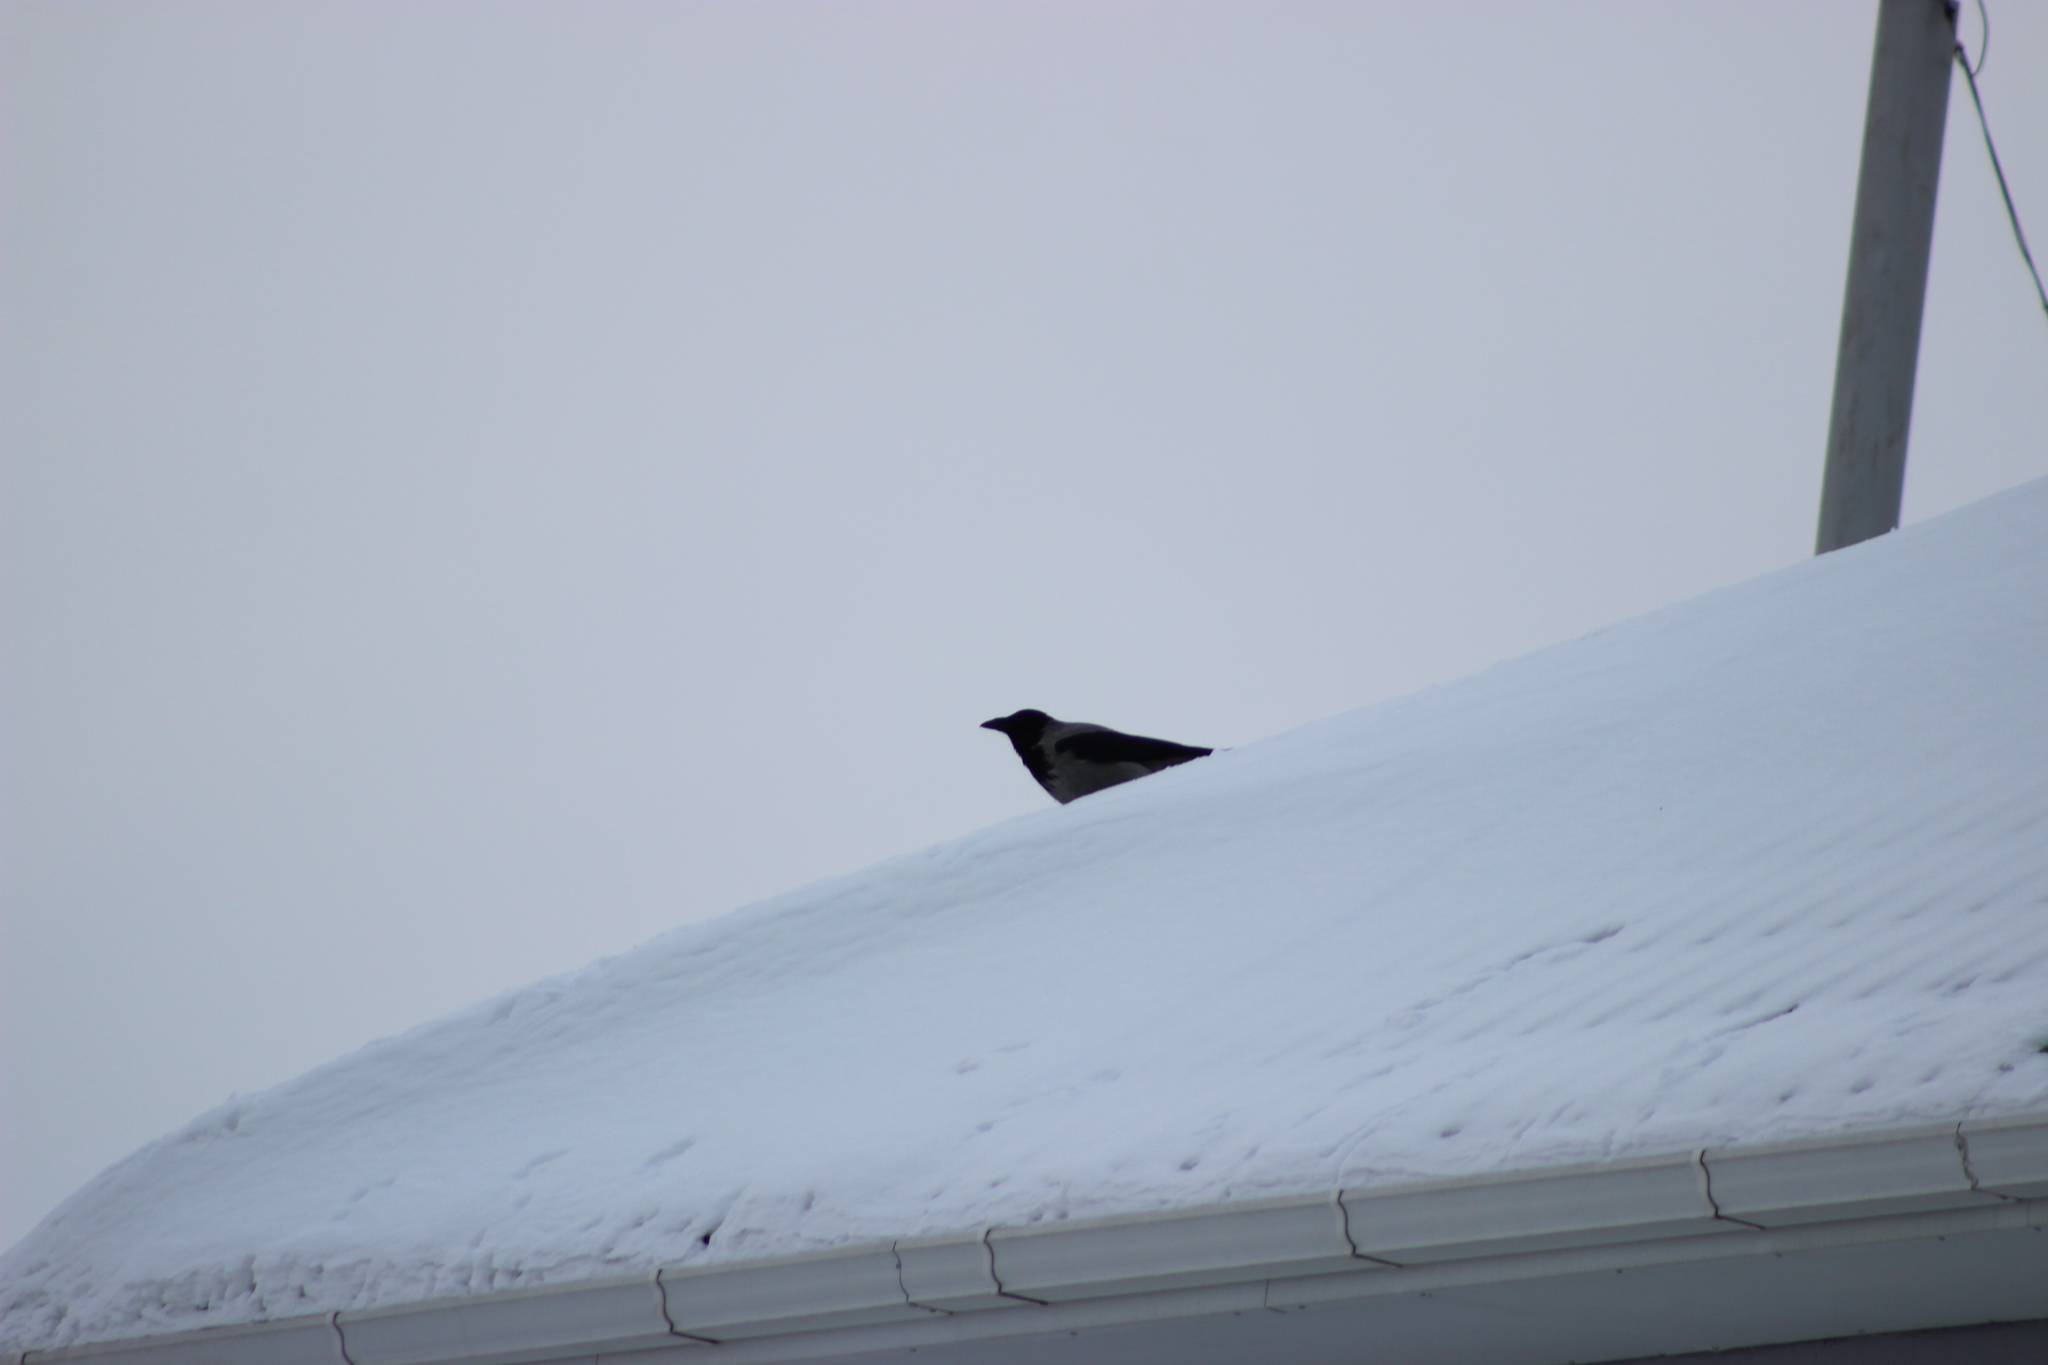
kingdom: Animalia
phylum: Chordata
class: Aves
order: Passeriformes
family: Corvidae
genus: Corvus
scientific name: Corvus cornix
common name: Hooded crow
